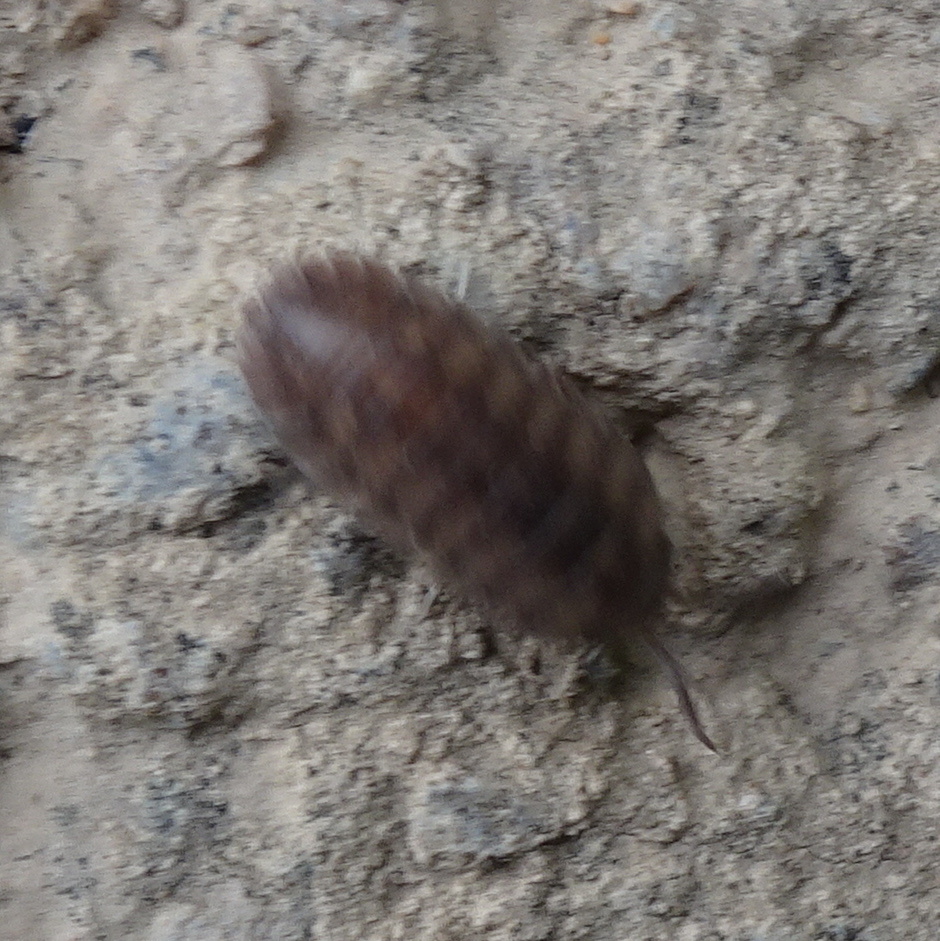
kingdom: Animalia
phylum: Arthropoda
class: Malacostraca
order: Isopoda
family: Armadillidiidae
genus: Armadillidium
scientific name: Armadillidium nasatum
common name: Isopod
